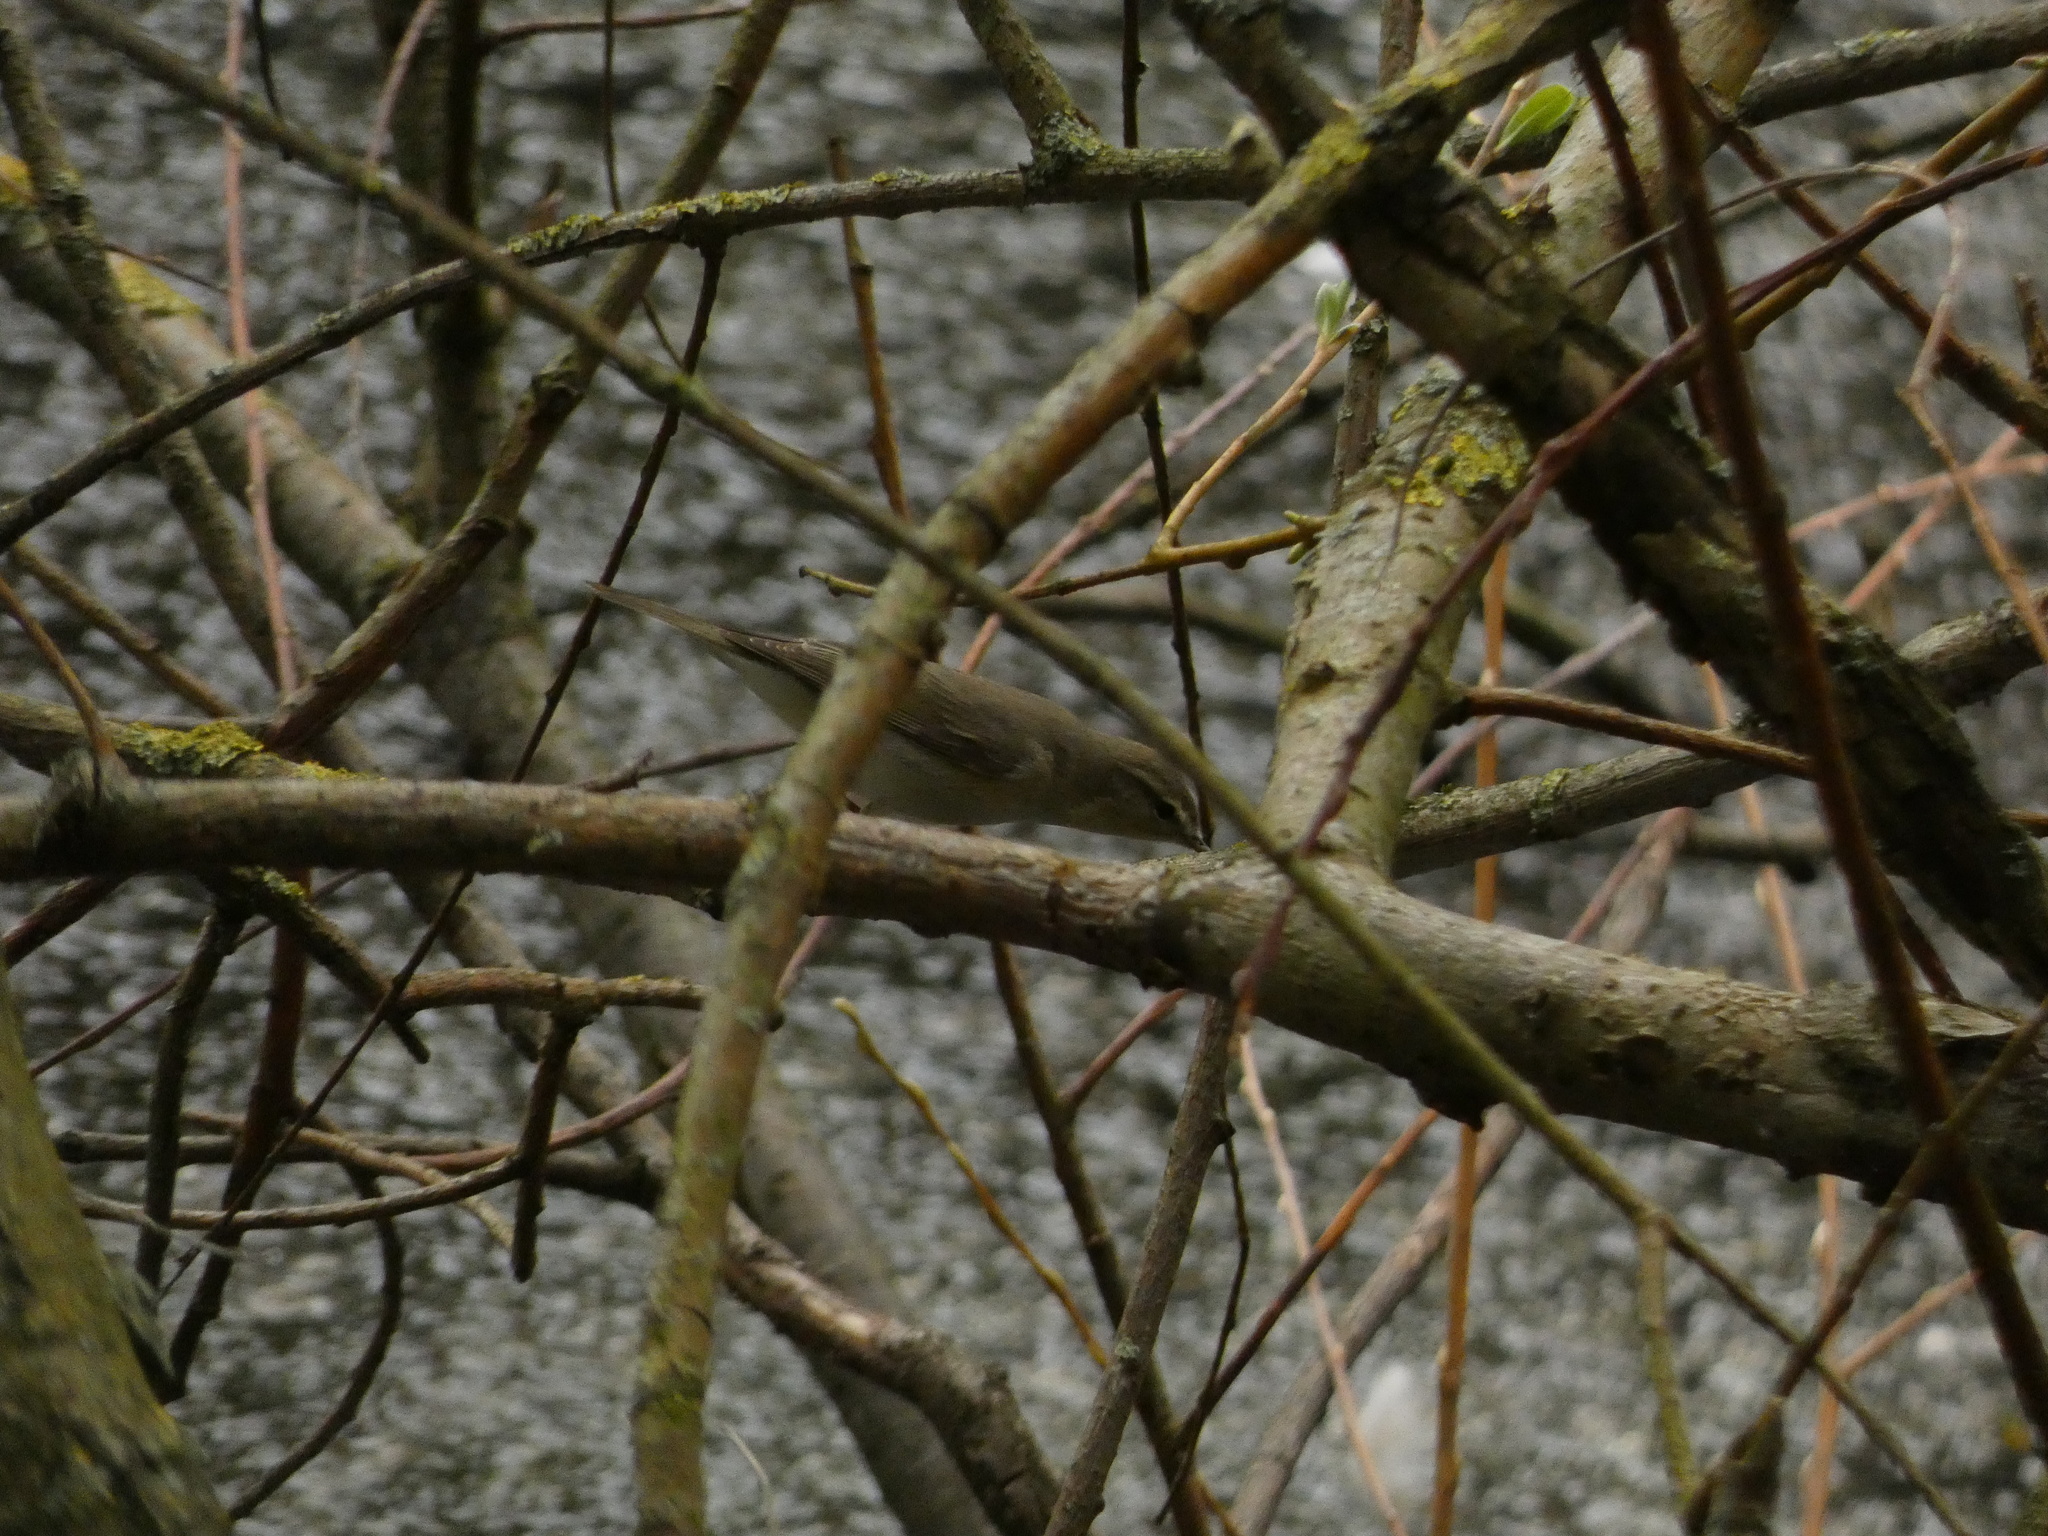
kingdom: Animalia
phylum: Chordata
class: Aves
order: Passeriformes
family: Phylloscopidae
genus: Phylloscopus
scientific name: Phylloscopus trochilus
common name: Willow warbler
